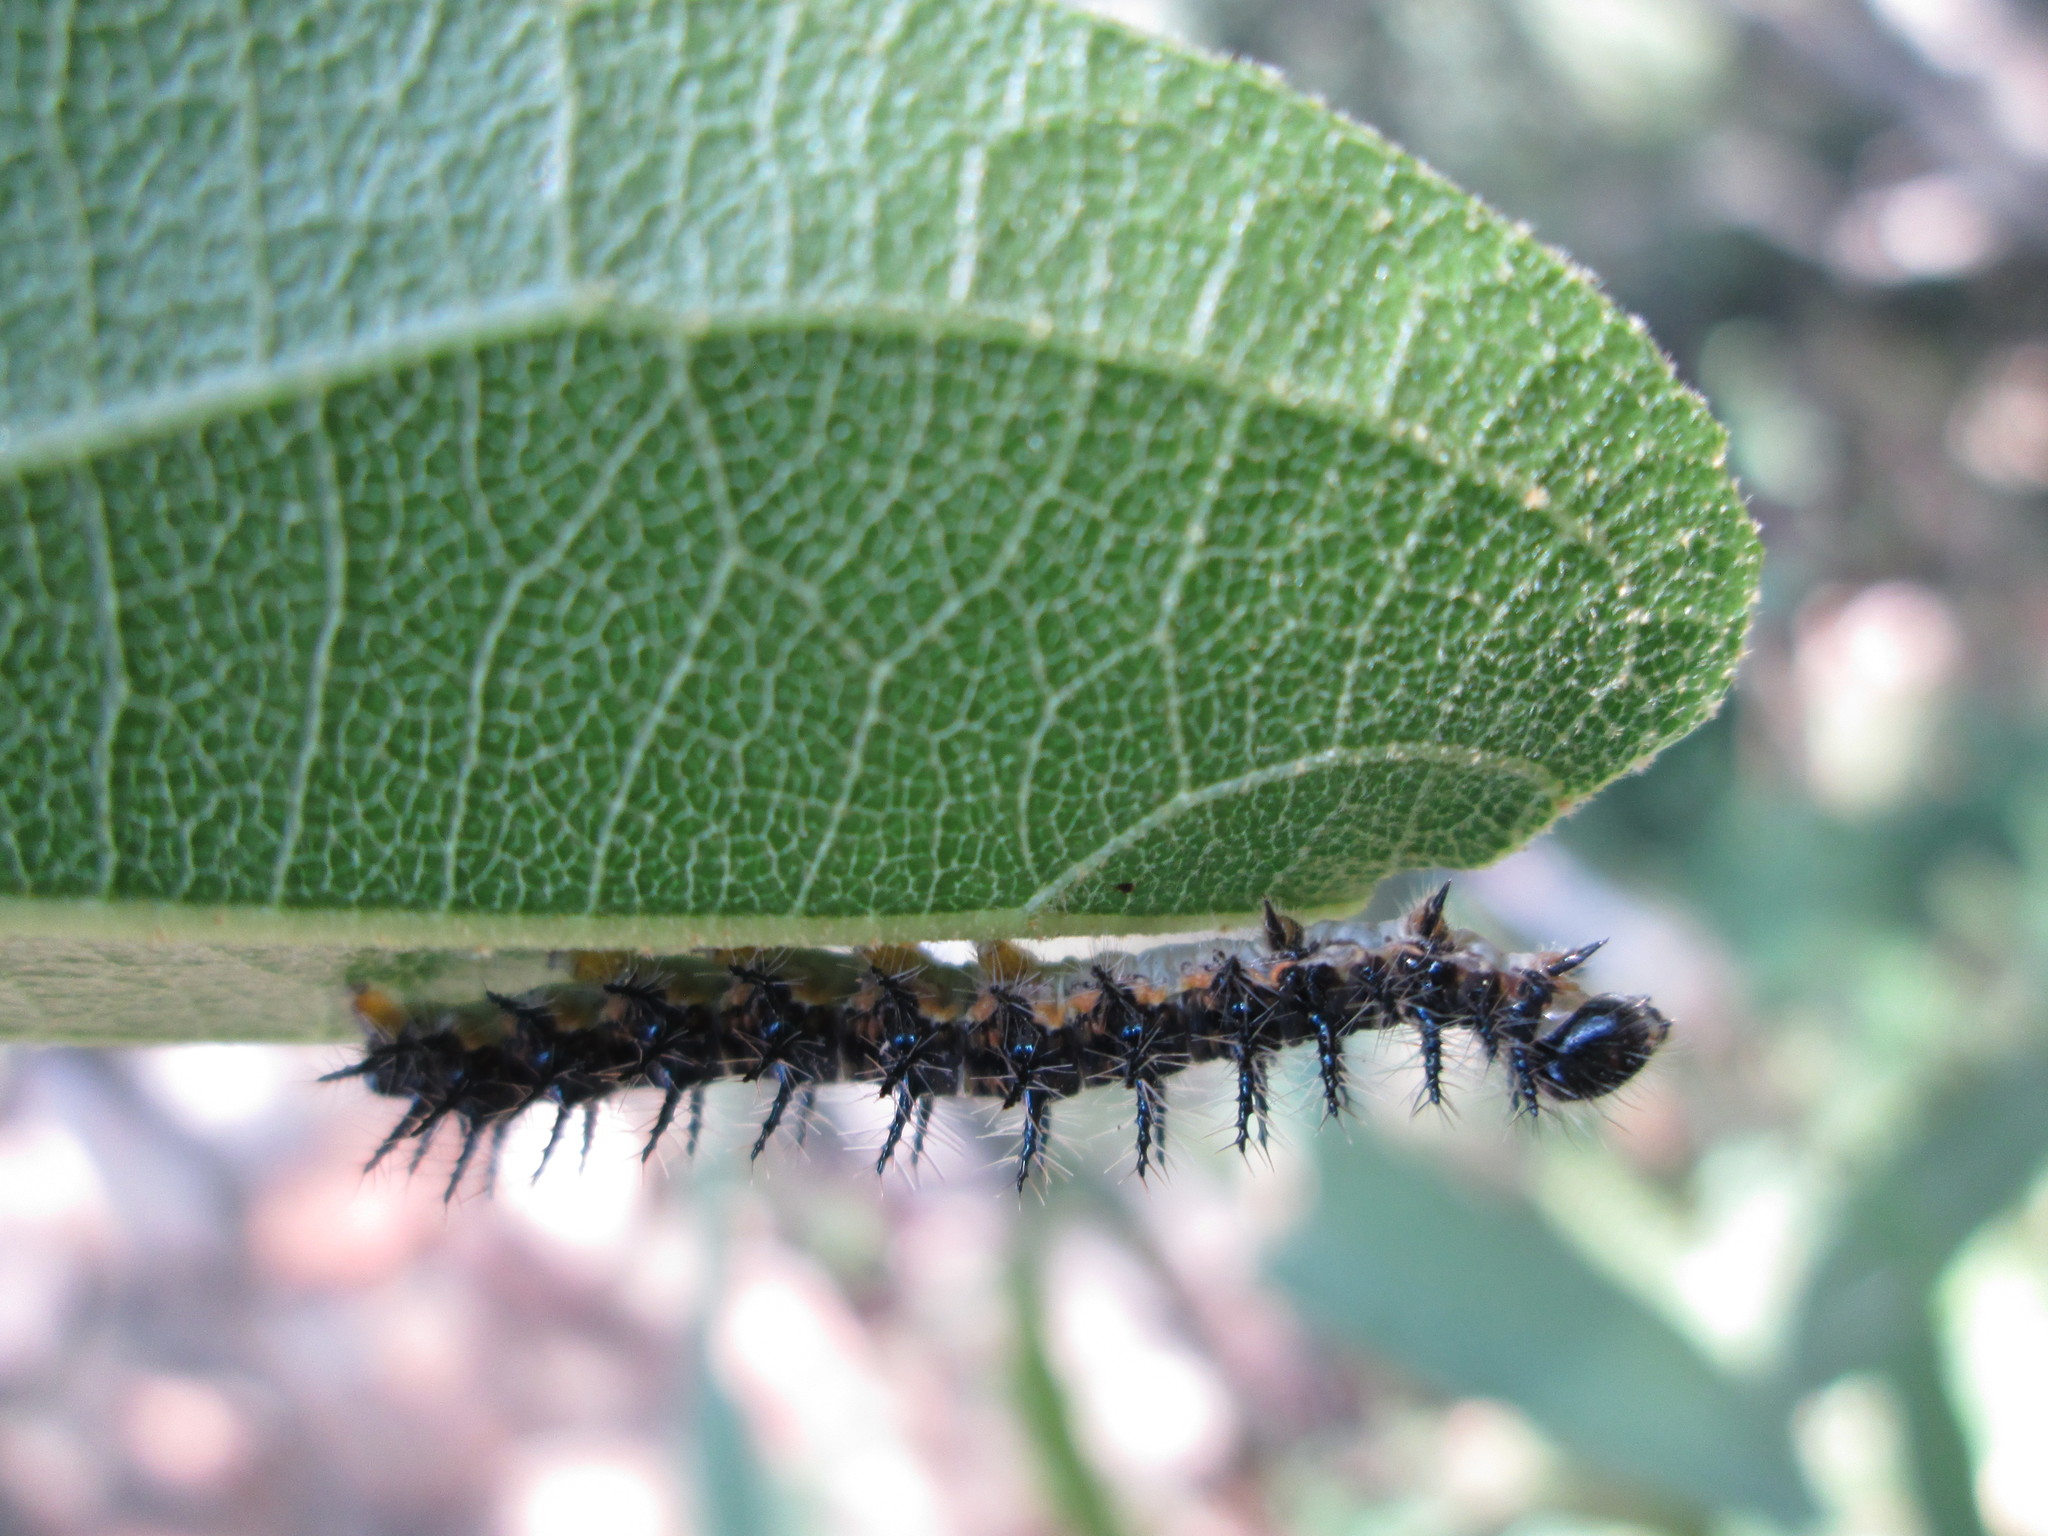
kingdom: Animalia
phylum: Arthropoda
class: Insecta
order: Lepidoptera
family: Nymphalidae
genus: Acraea
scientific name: Acraea horta
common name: Garden acraea
